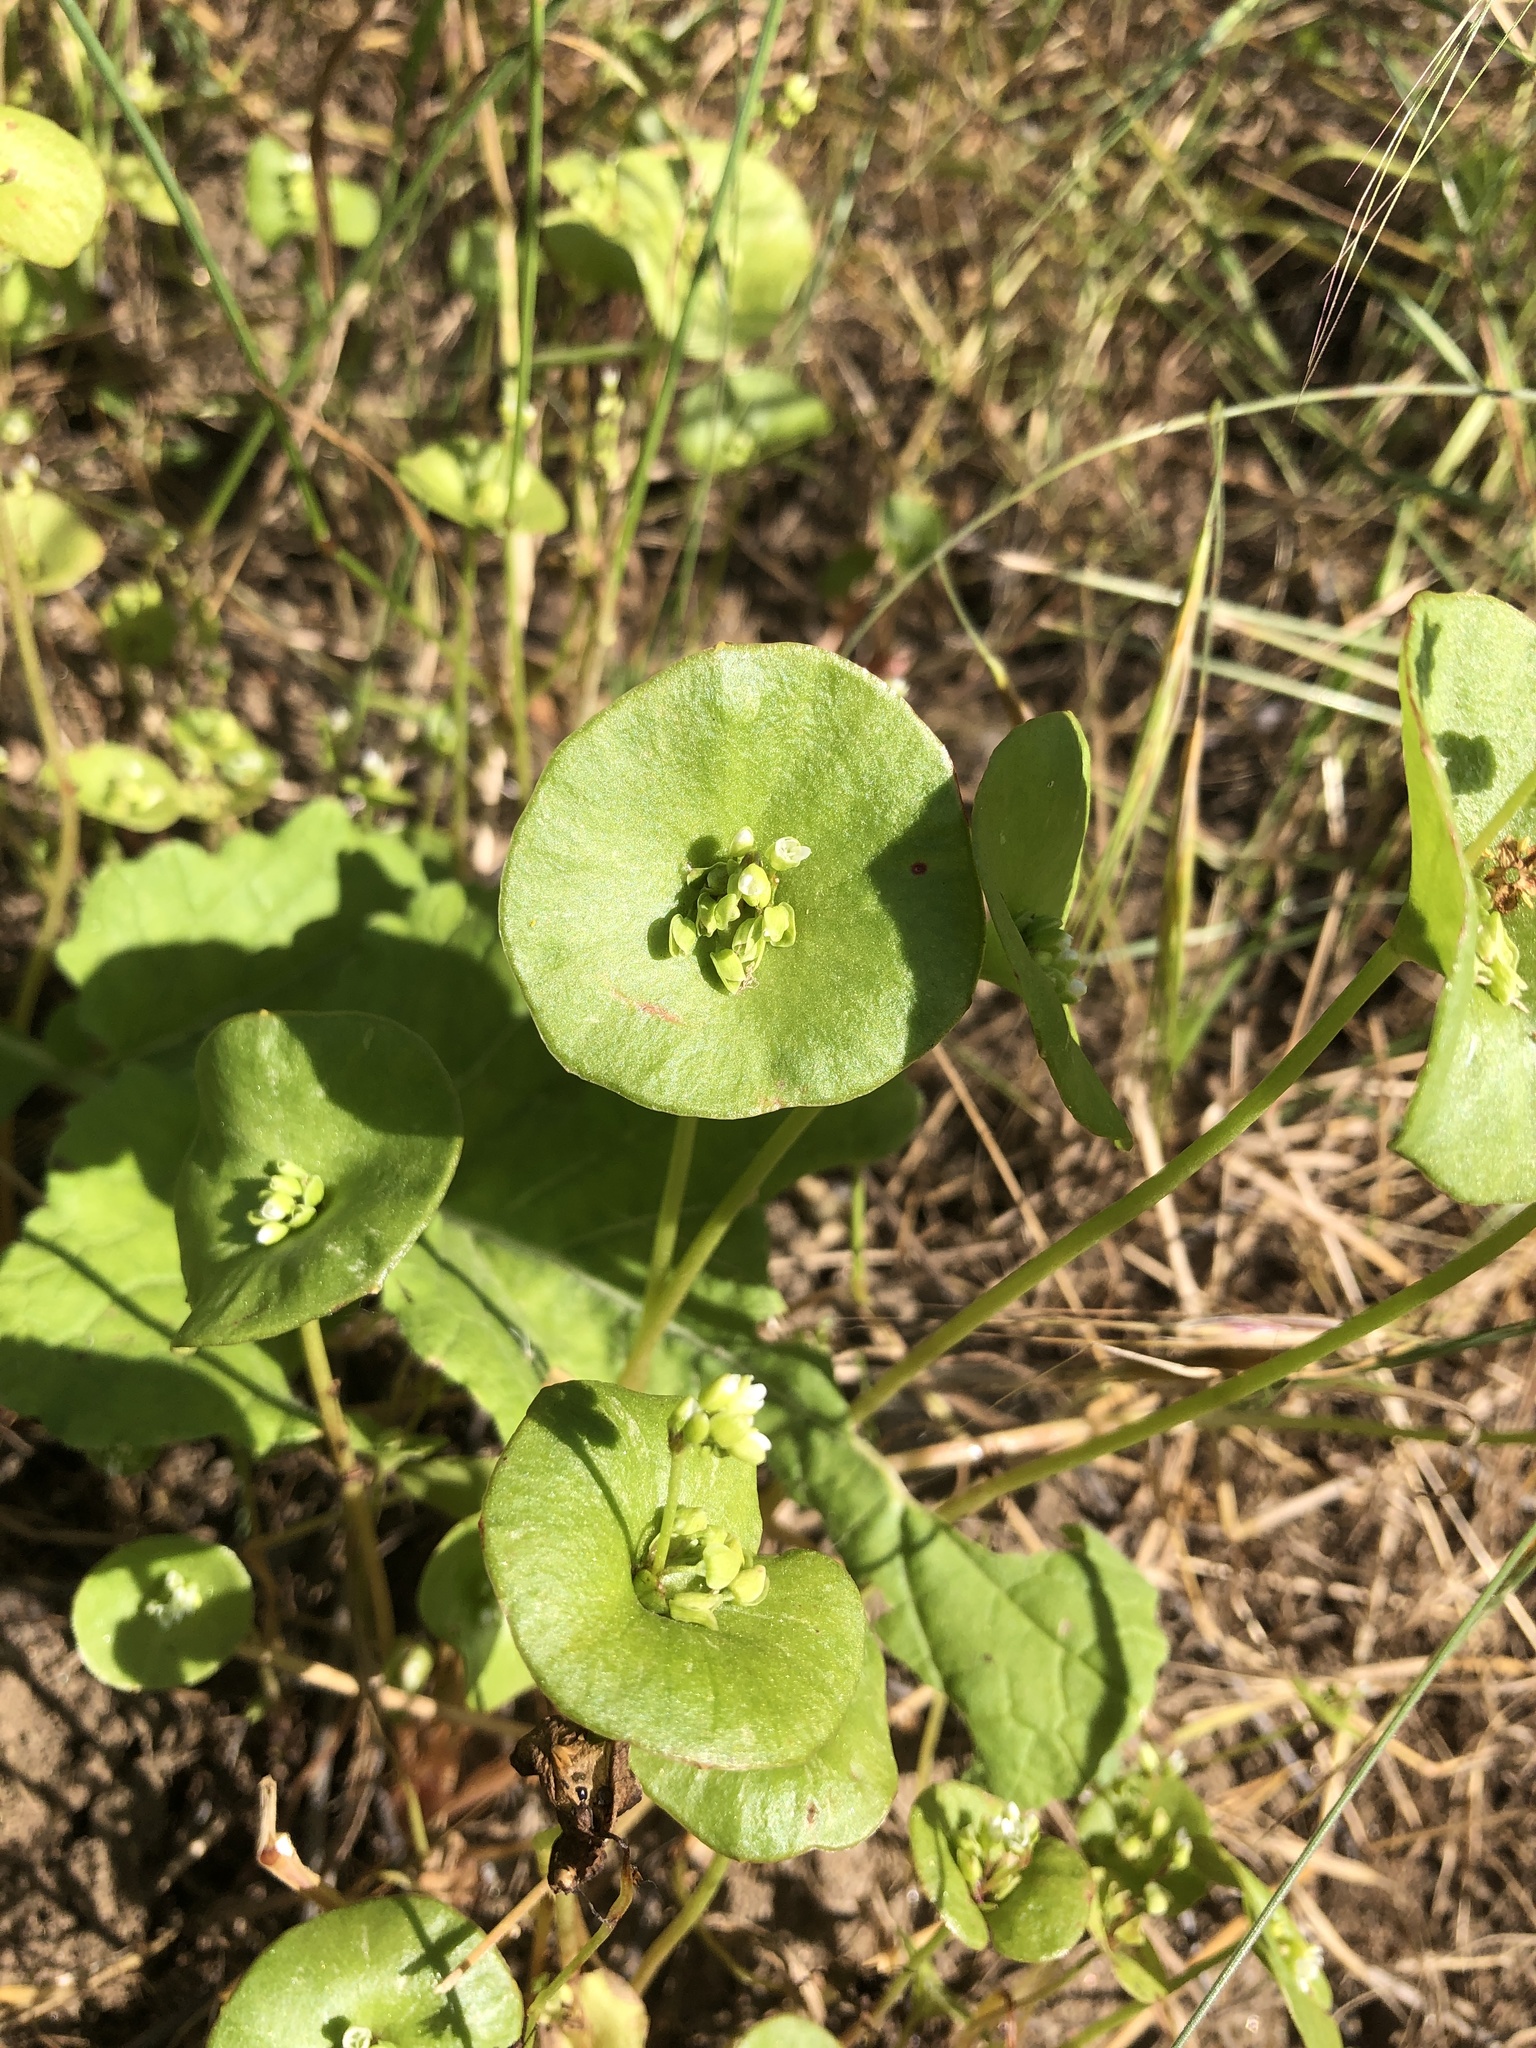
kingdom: Plantae
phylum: Tracheophyta
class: Magnoliopsida
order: Caryophyllales
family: Montiaceae
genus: Claytonia
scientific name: Claytonia perfoliata
